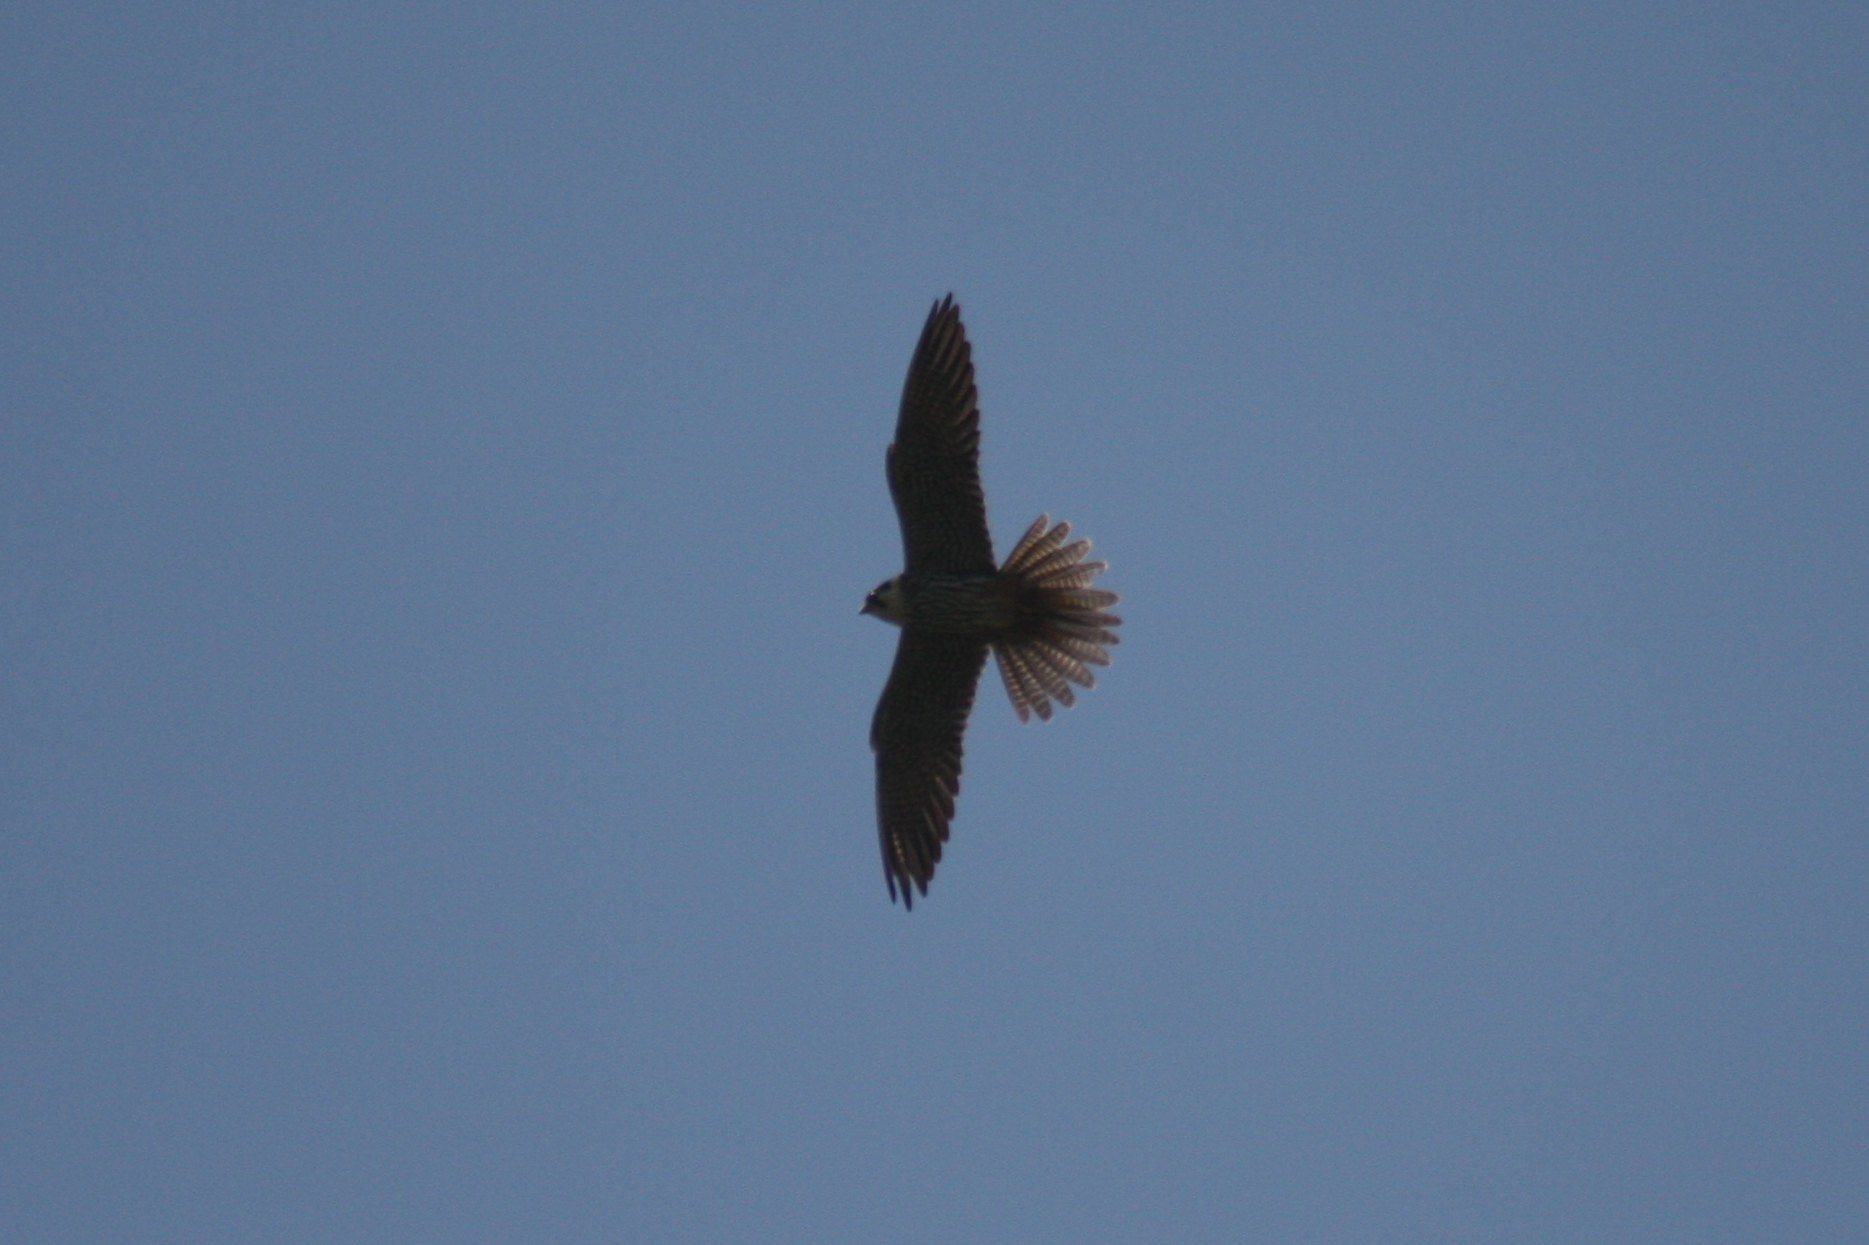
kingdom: Animalia
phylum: Chordata
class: Aves
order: Falconiformes
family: Falconidae
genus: Falco
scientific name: Falco subbuteo
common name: Eurasian hobby
